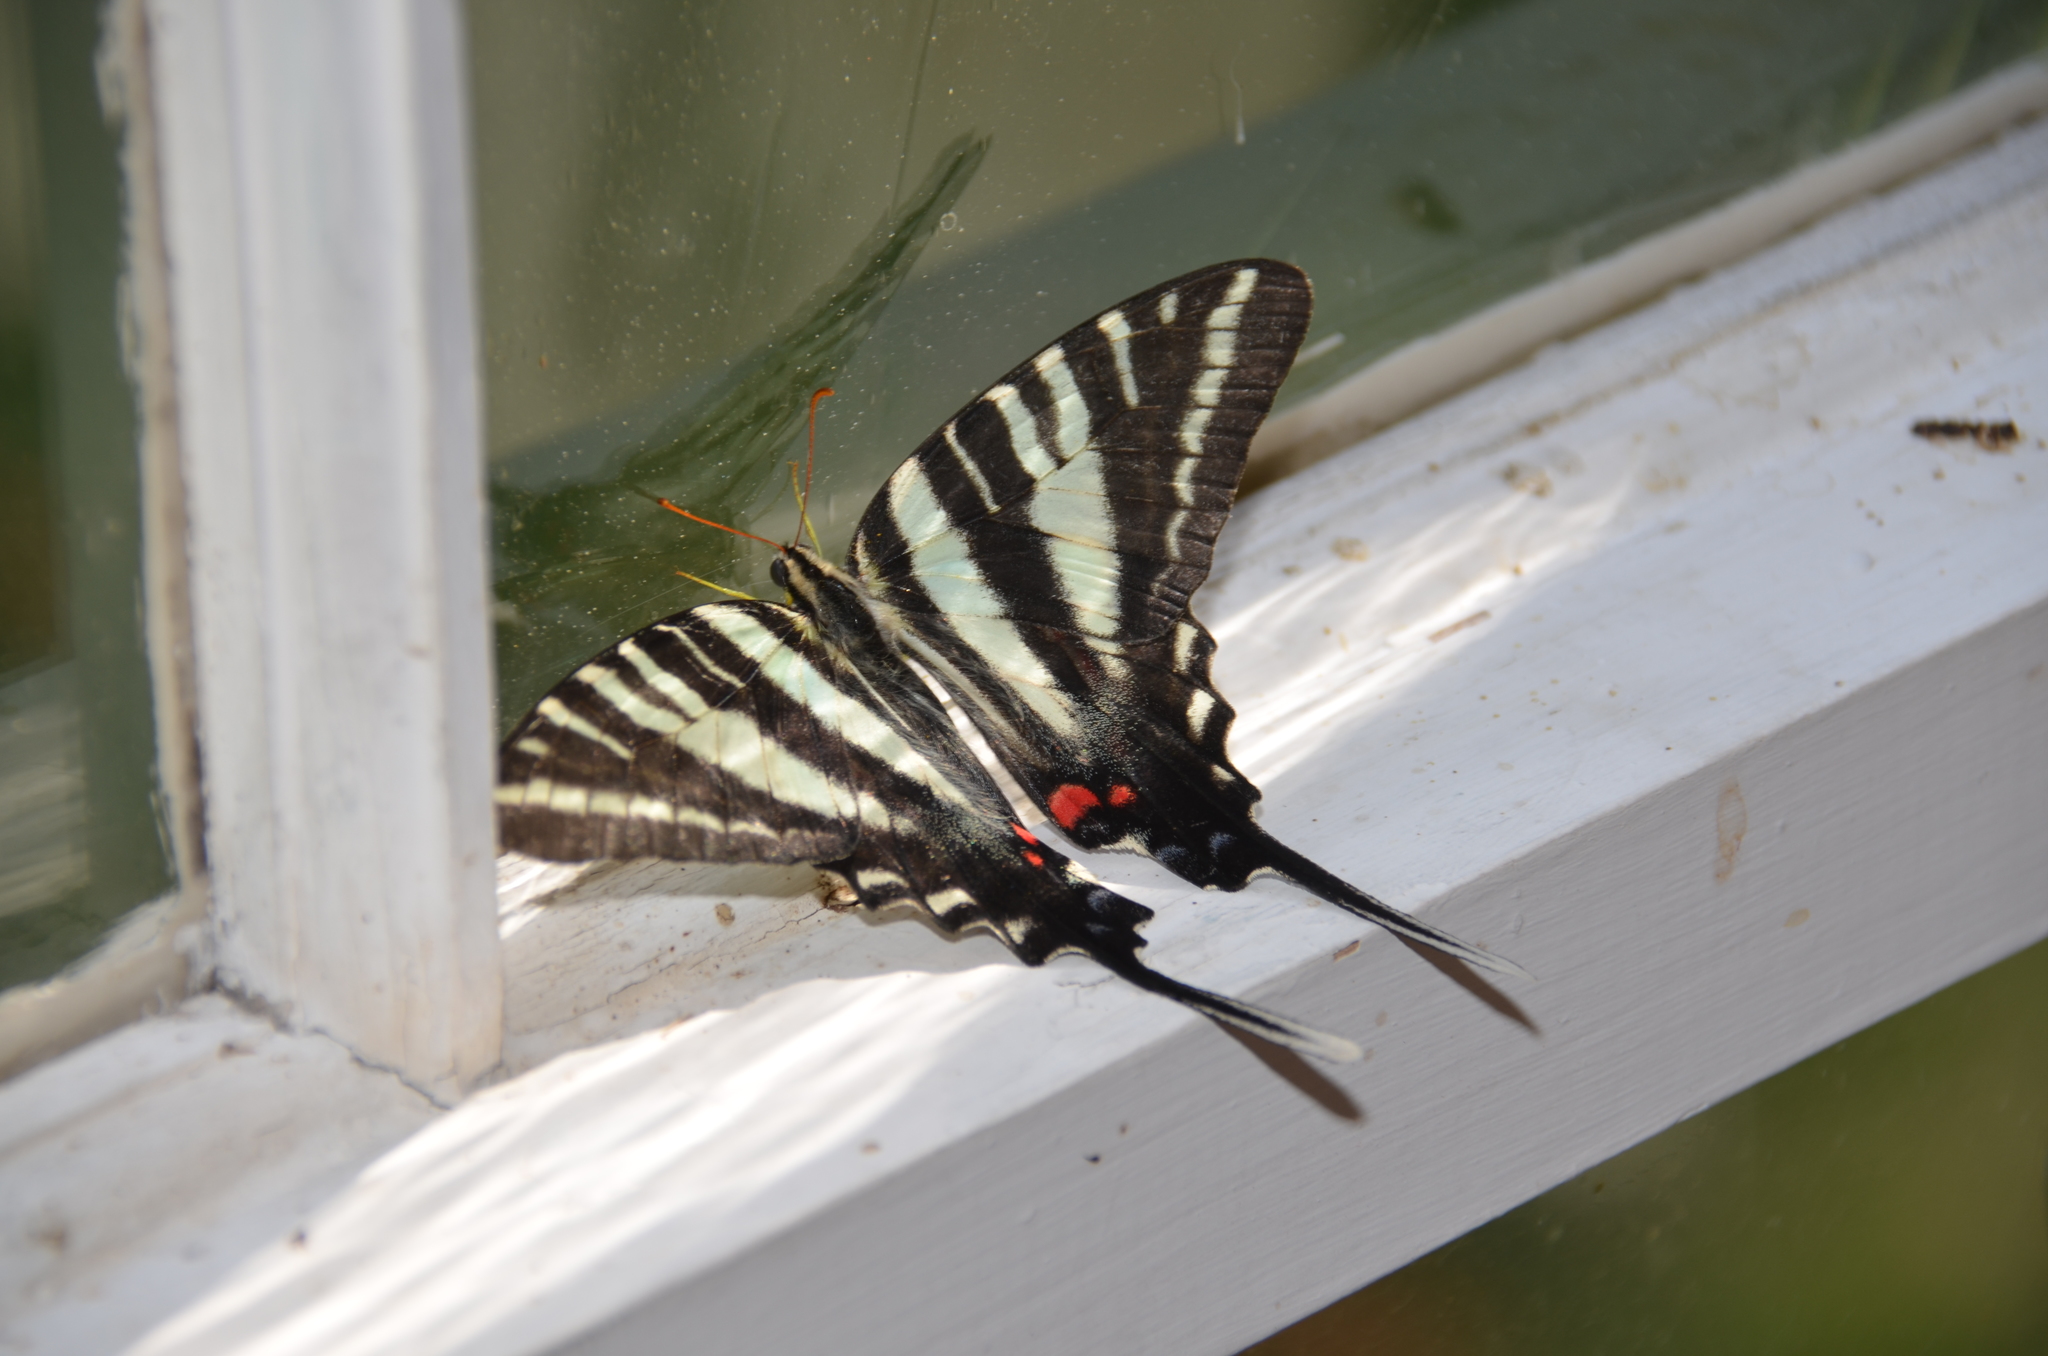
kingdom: Animalia
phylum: Arthropoda
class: Insecta
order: Lepidoptera
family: Papilionidae
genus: Protographium
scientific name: Protographium marcellus
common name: Zebra swallowtail
